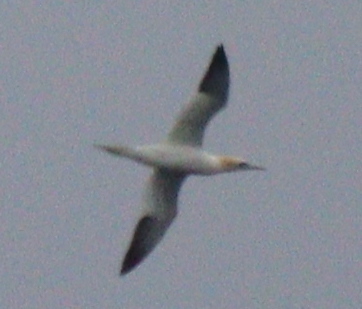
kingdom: Animalia
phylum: Chordata
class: Aves
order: Suliformes
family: Sulidae
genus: Morus
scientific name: Morus bassanus
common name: Northern gannet
